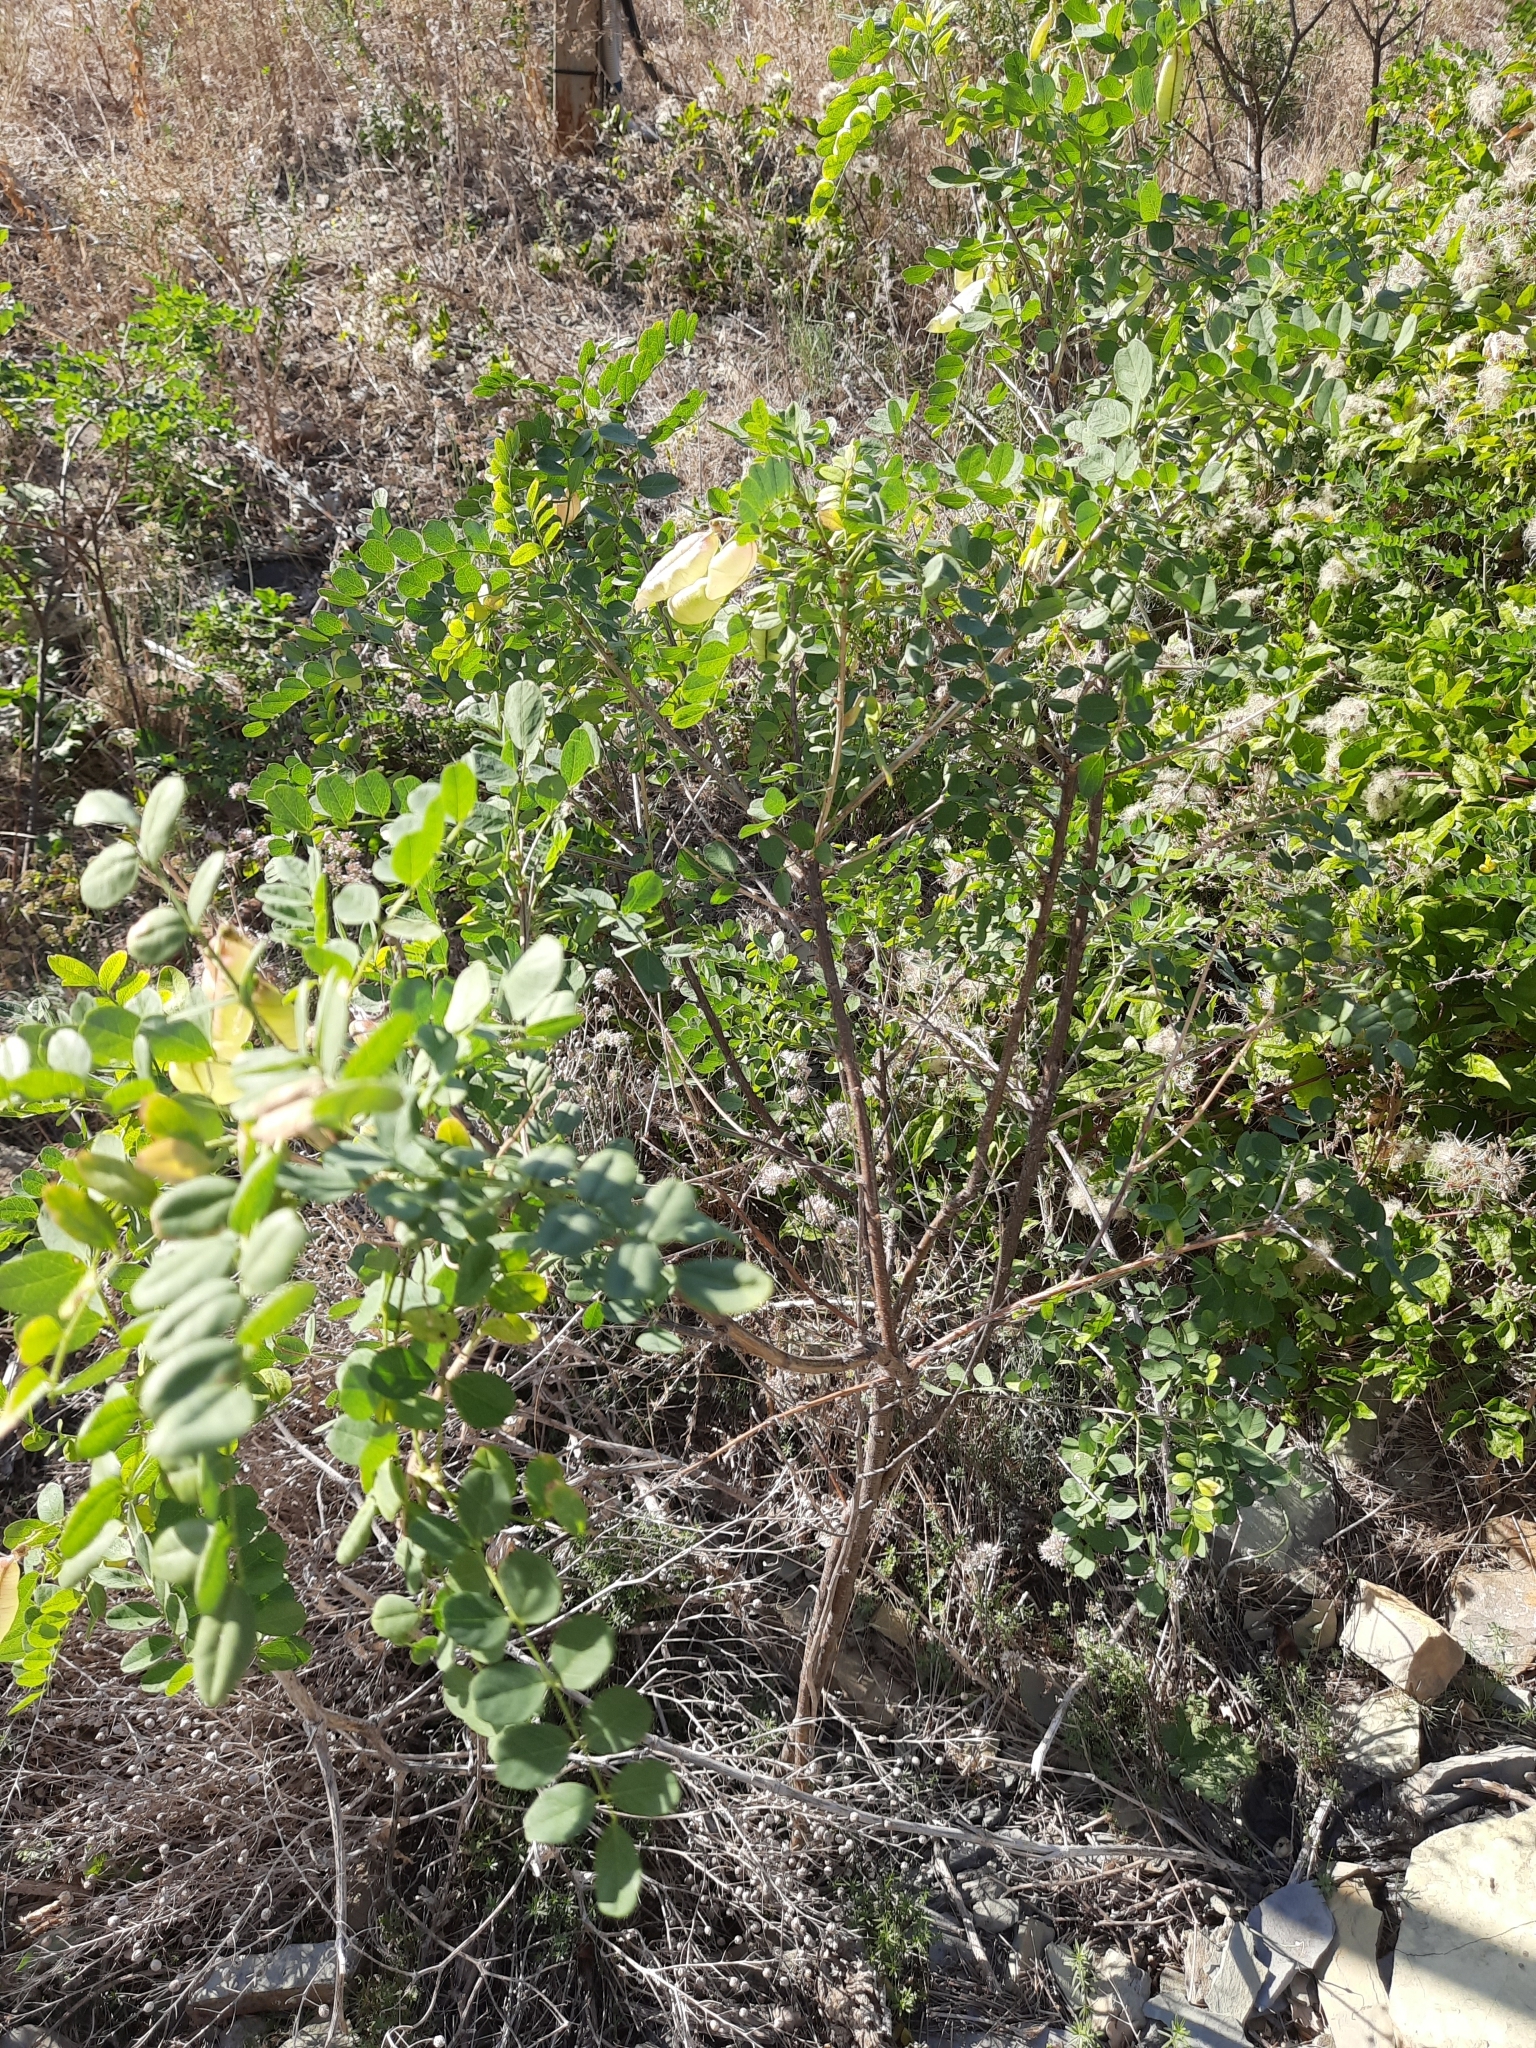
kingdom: Plantae
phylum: Tracheophyta
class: Magnoliopsida
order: Fabales
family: Fabaceae
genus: Colutea
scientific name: Colutea cilicica
